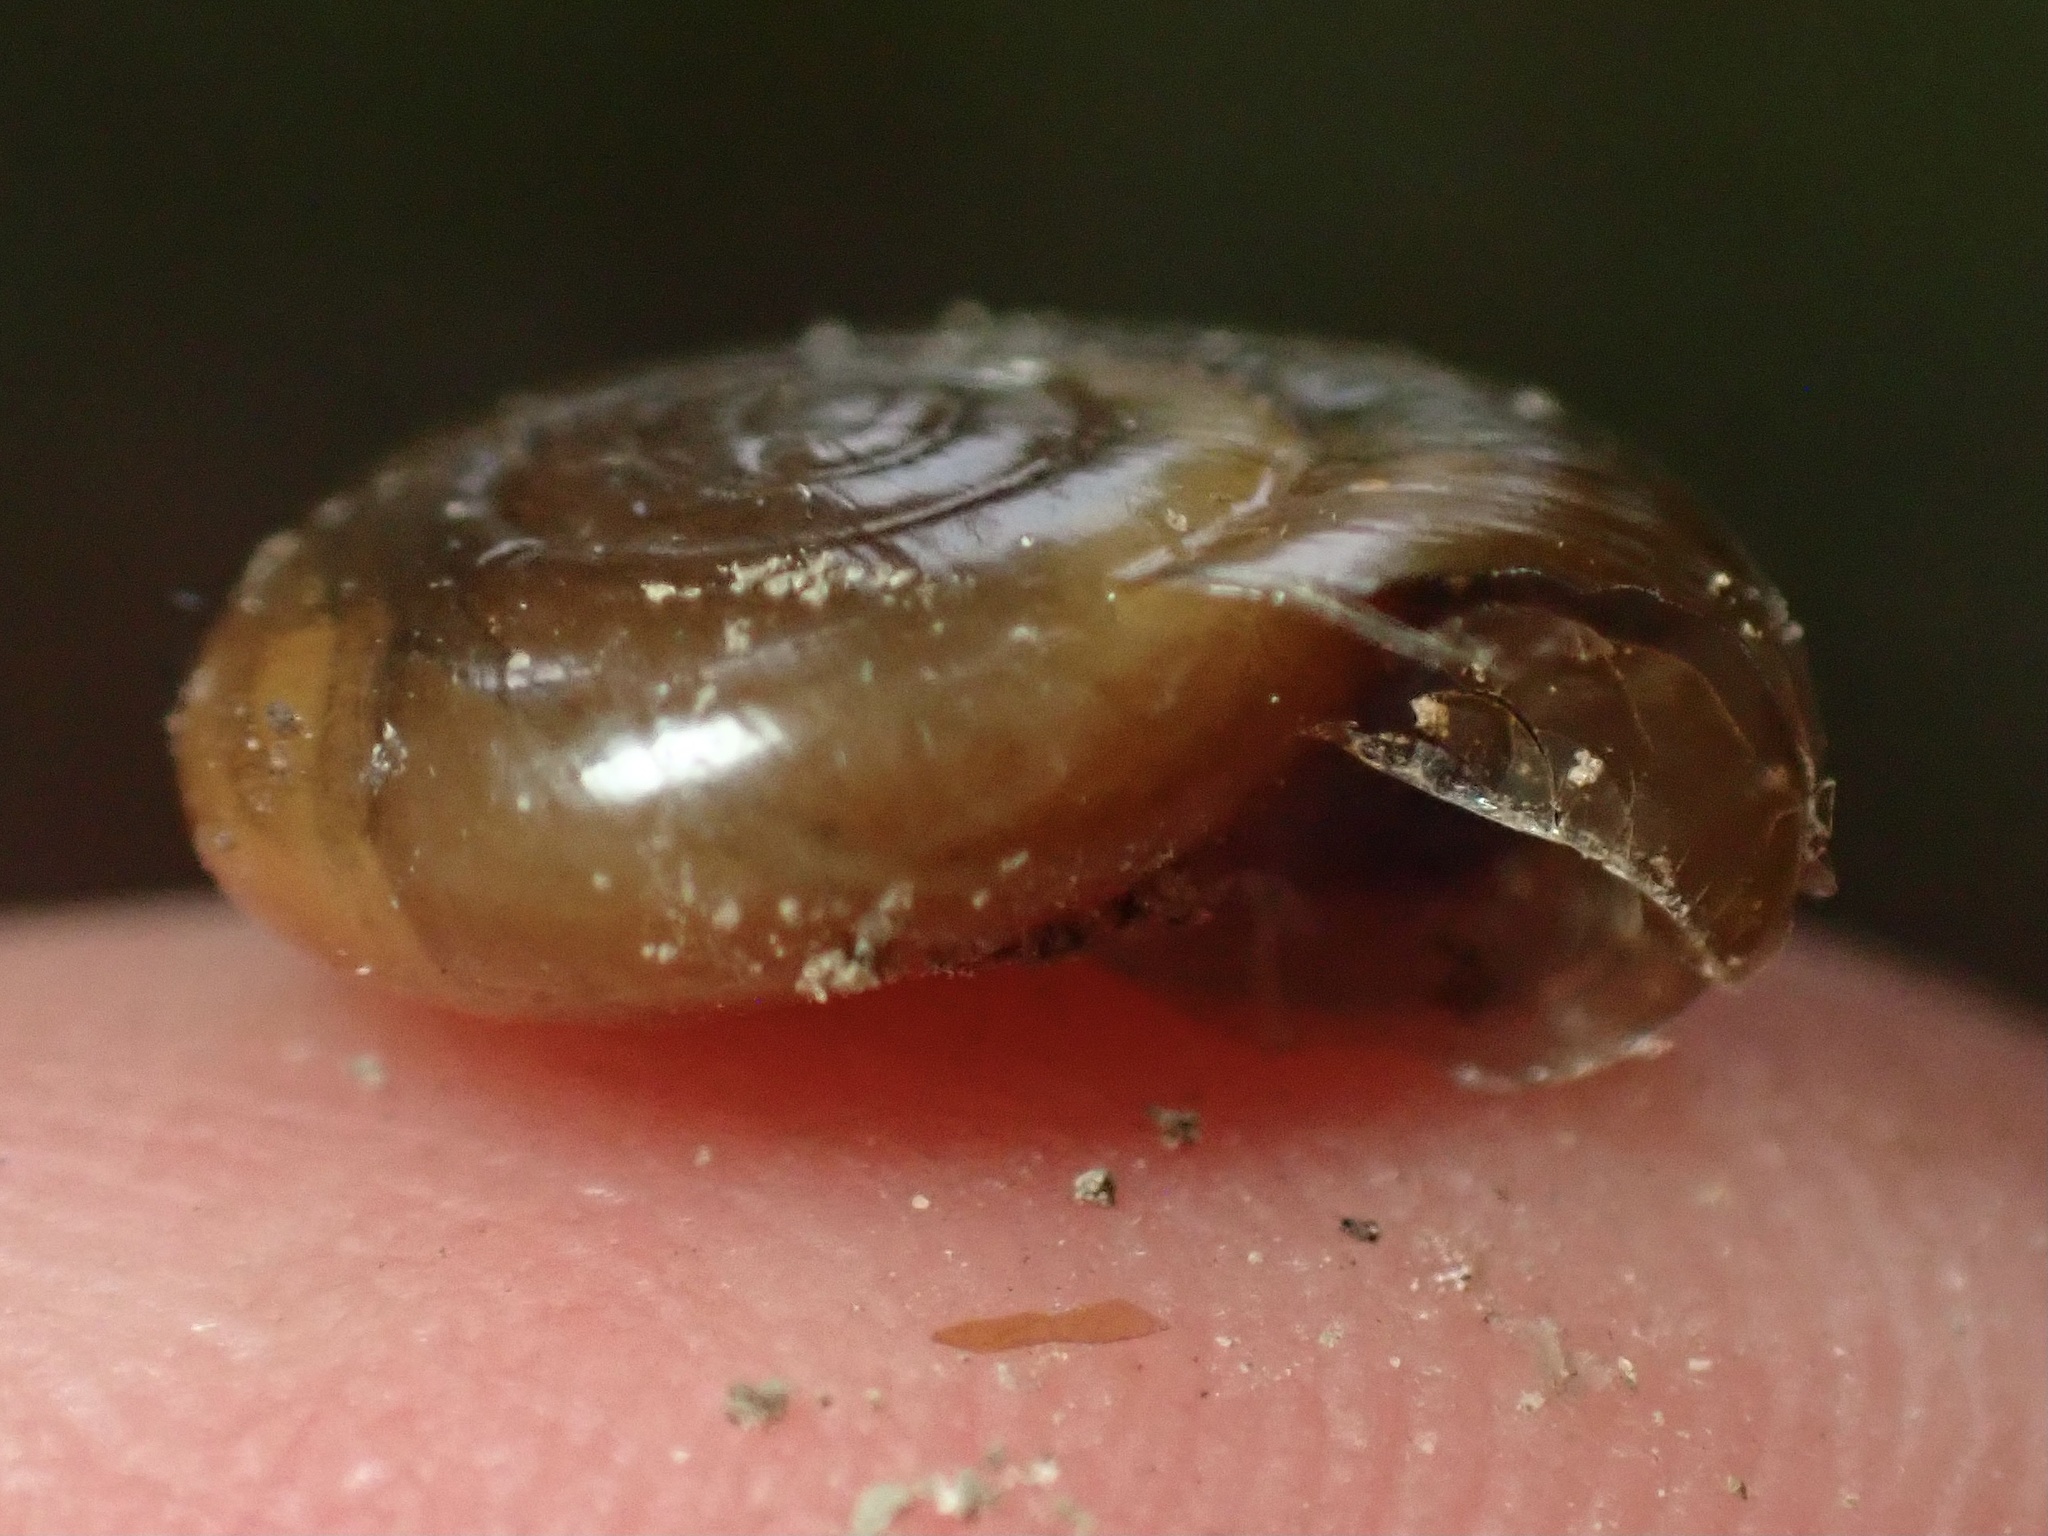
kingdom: Animalia
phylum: Mollusca
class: Gastropoda
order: Stylommatophora
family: Oxychilidae
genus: Oxychilus
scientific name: Oxychilus
